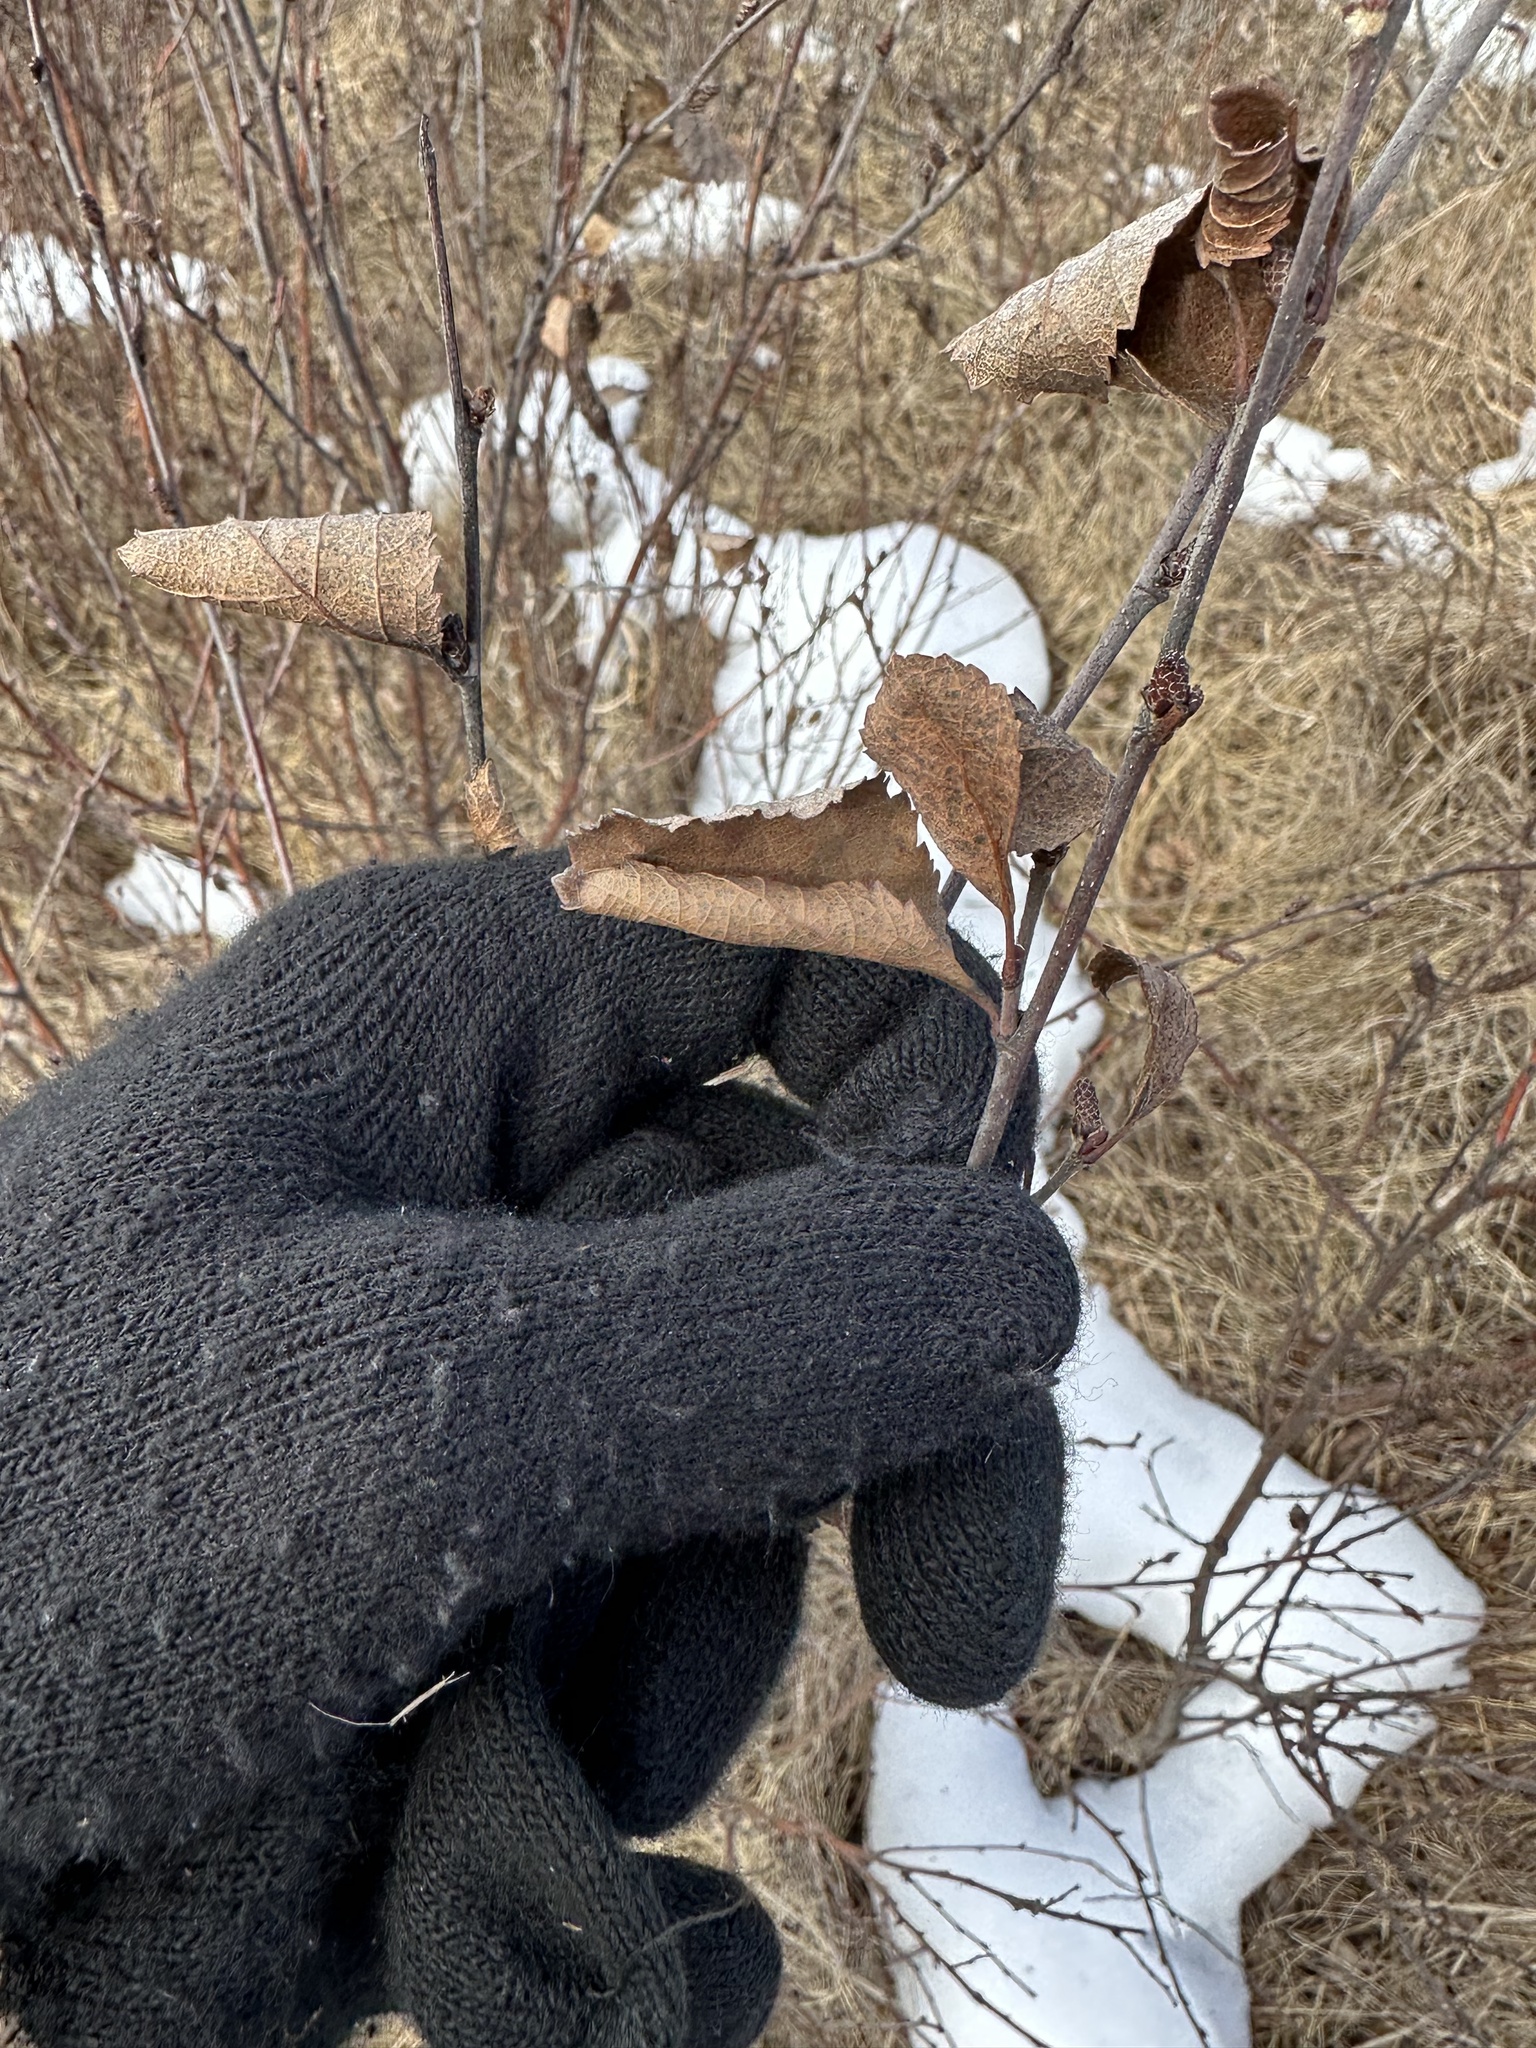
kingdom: Plantae
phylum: Tracheophyta
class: Magnoliopsida
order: Fagales
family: Betulaceae
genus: Betula
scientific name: Betula pumila
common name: Bog birch
